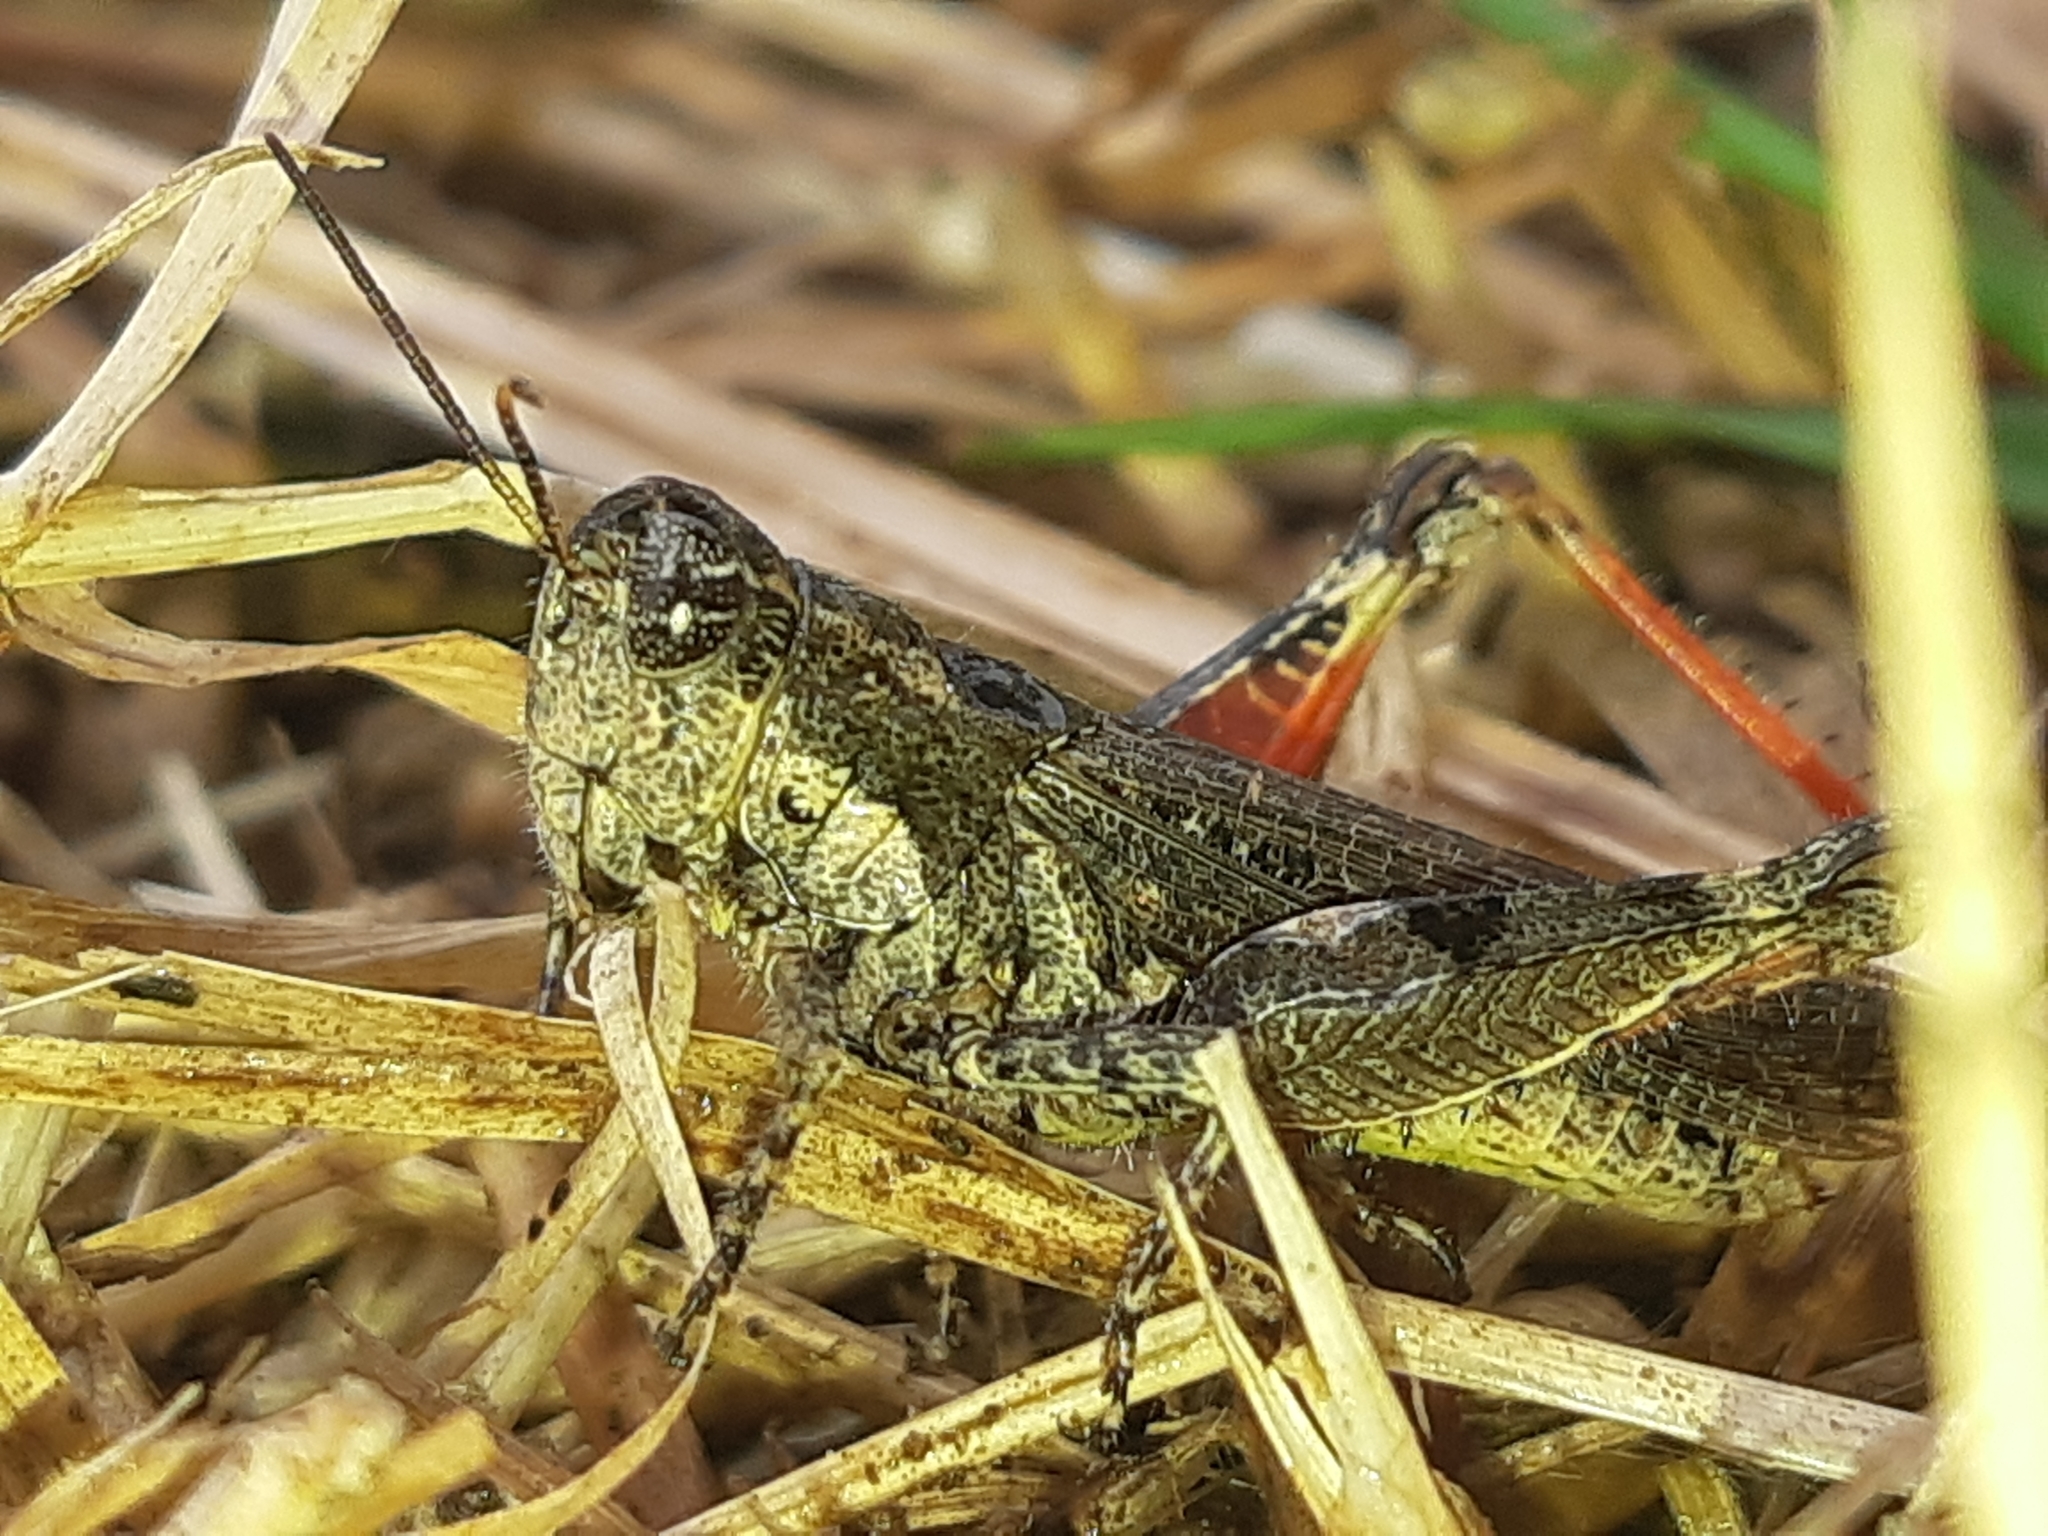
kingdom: Animalia
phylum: Arthropoda
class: Insecta
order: Orthoptera
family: Acrididae
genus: Baeacris
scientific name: Baeacris punctulata
